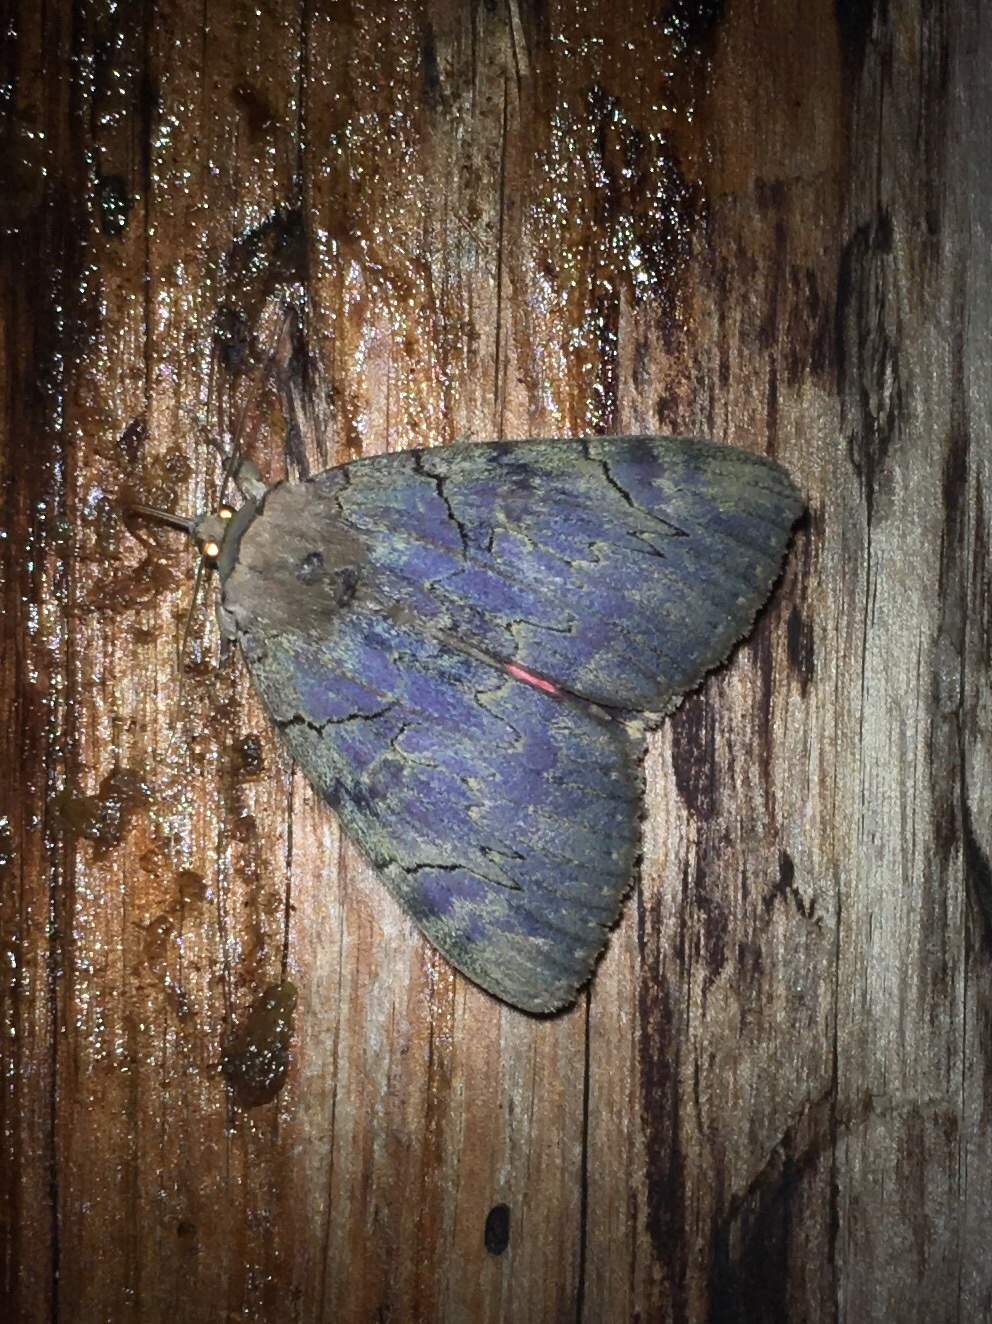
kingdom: Animalia
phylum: Arthropoda
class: Insecta
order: Lepidoptera
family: Erebidae
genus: Catocala
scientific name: Catocala cara
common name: Darling underwing
